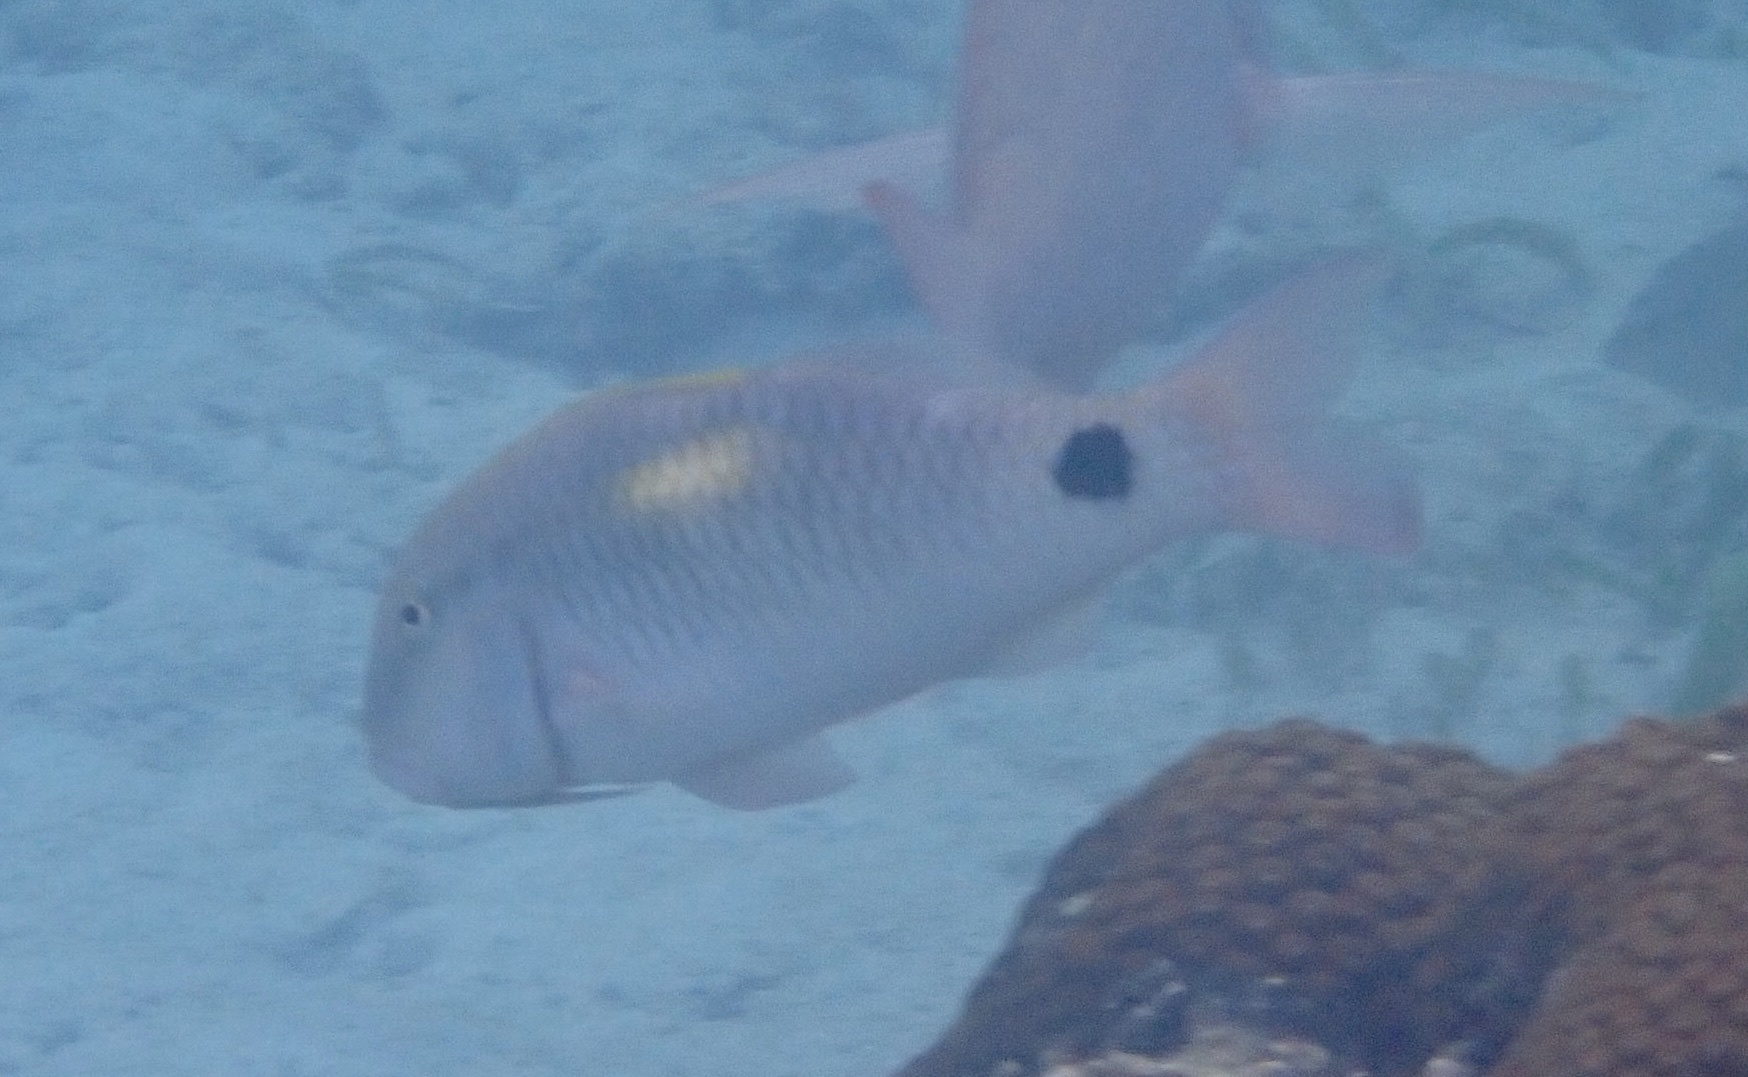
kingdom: Animalia
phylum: Chordata
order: Perciformes
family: Mullidae
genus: Parupeneus
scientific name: Parupeneus indicus
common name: Indian goatfish
